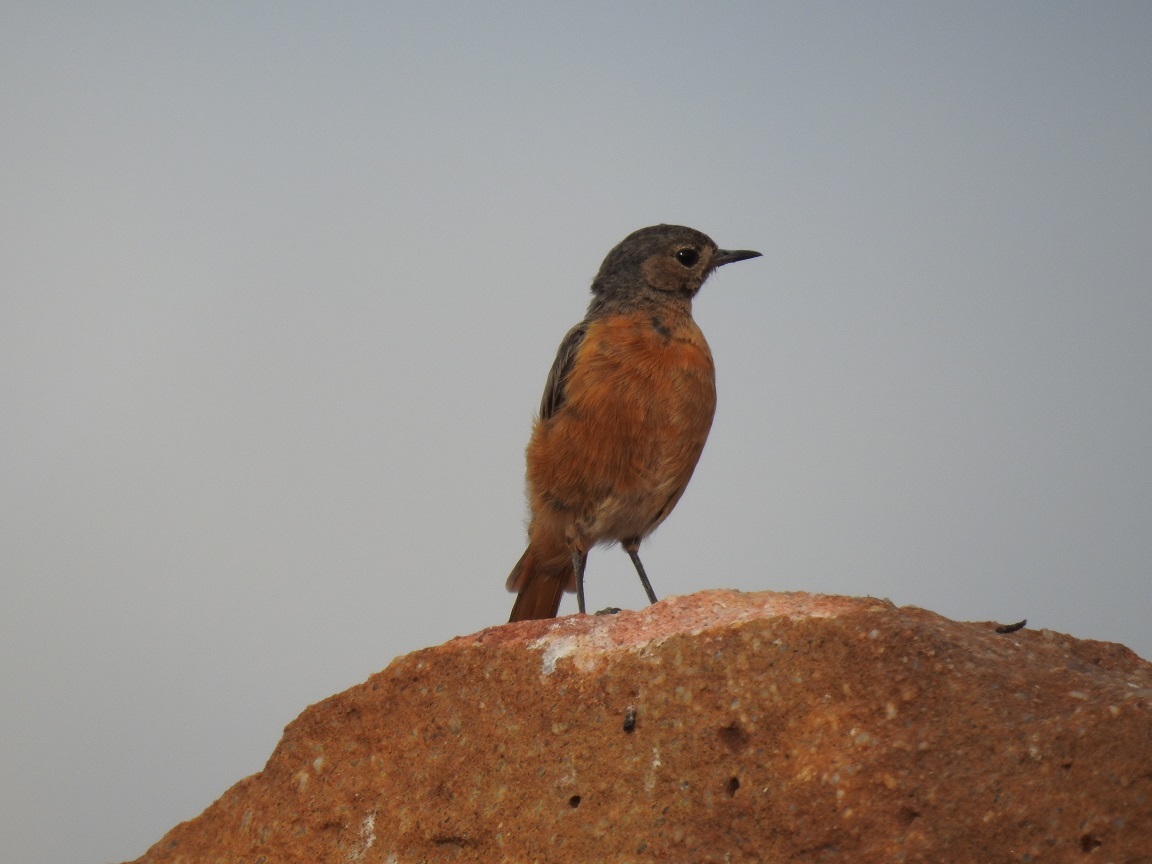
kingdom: Animalia
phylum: Chordata
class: Aves
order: Passeriformes
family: Muscicapidae
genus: Phoenicurus
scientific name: Phoenicurus moussieri
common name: Moussier's redstart
